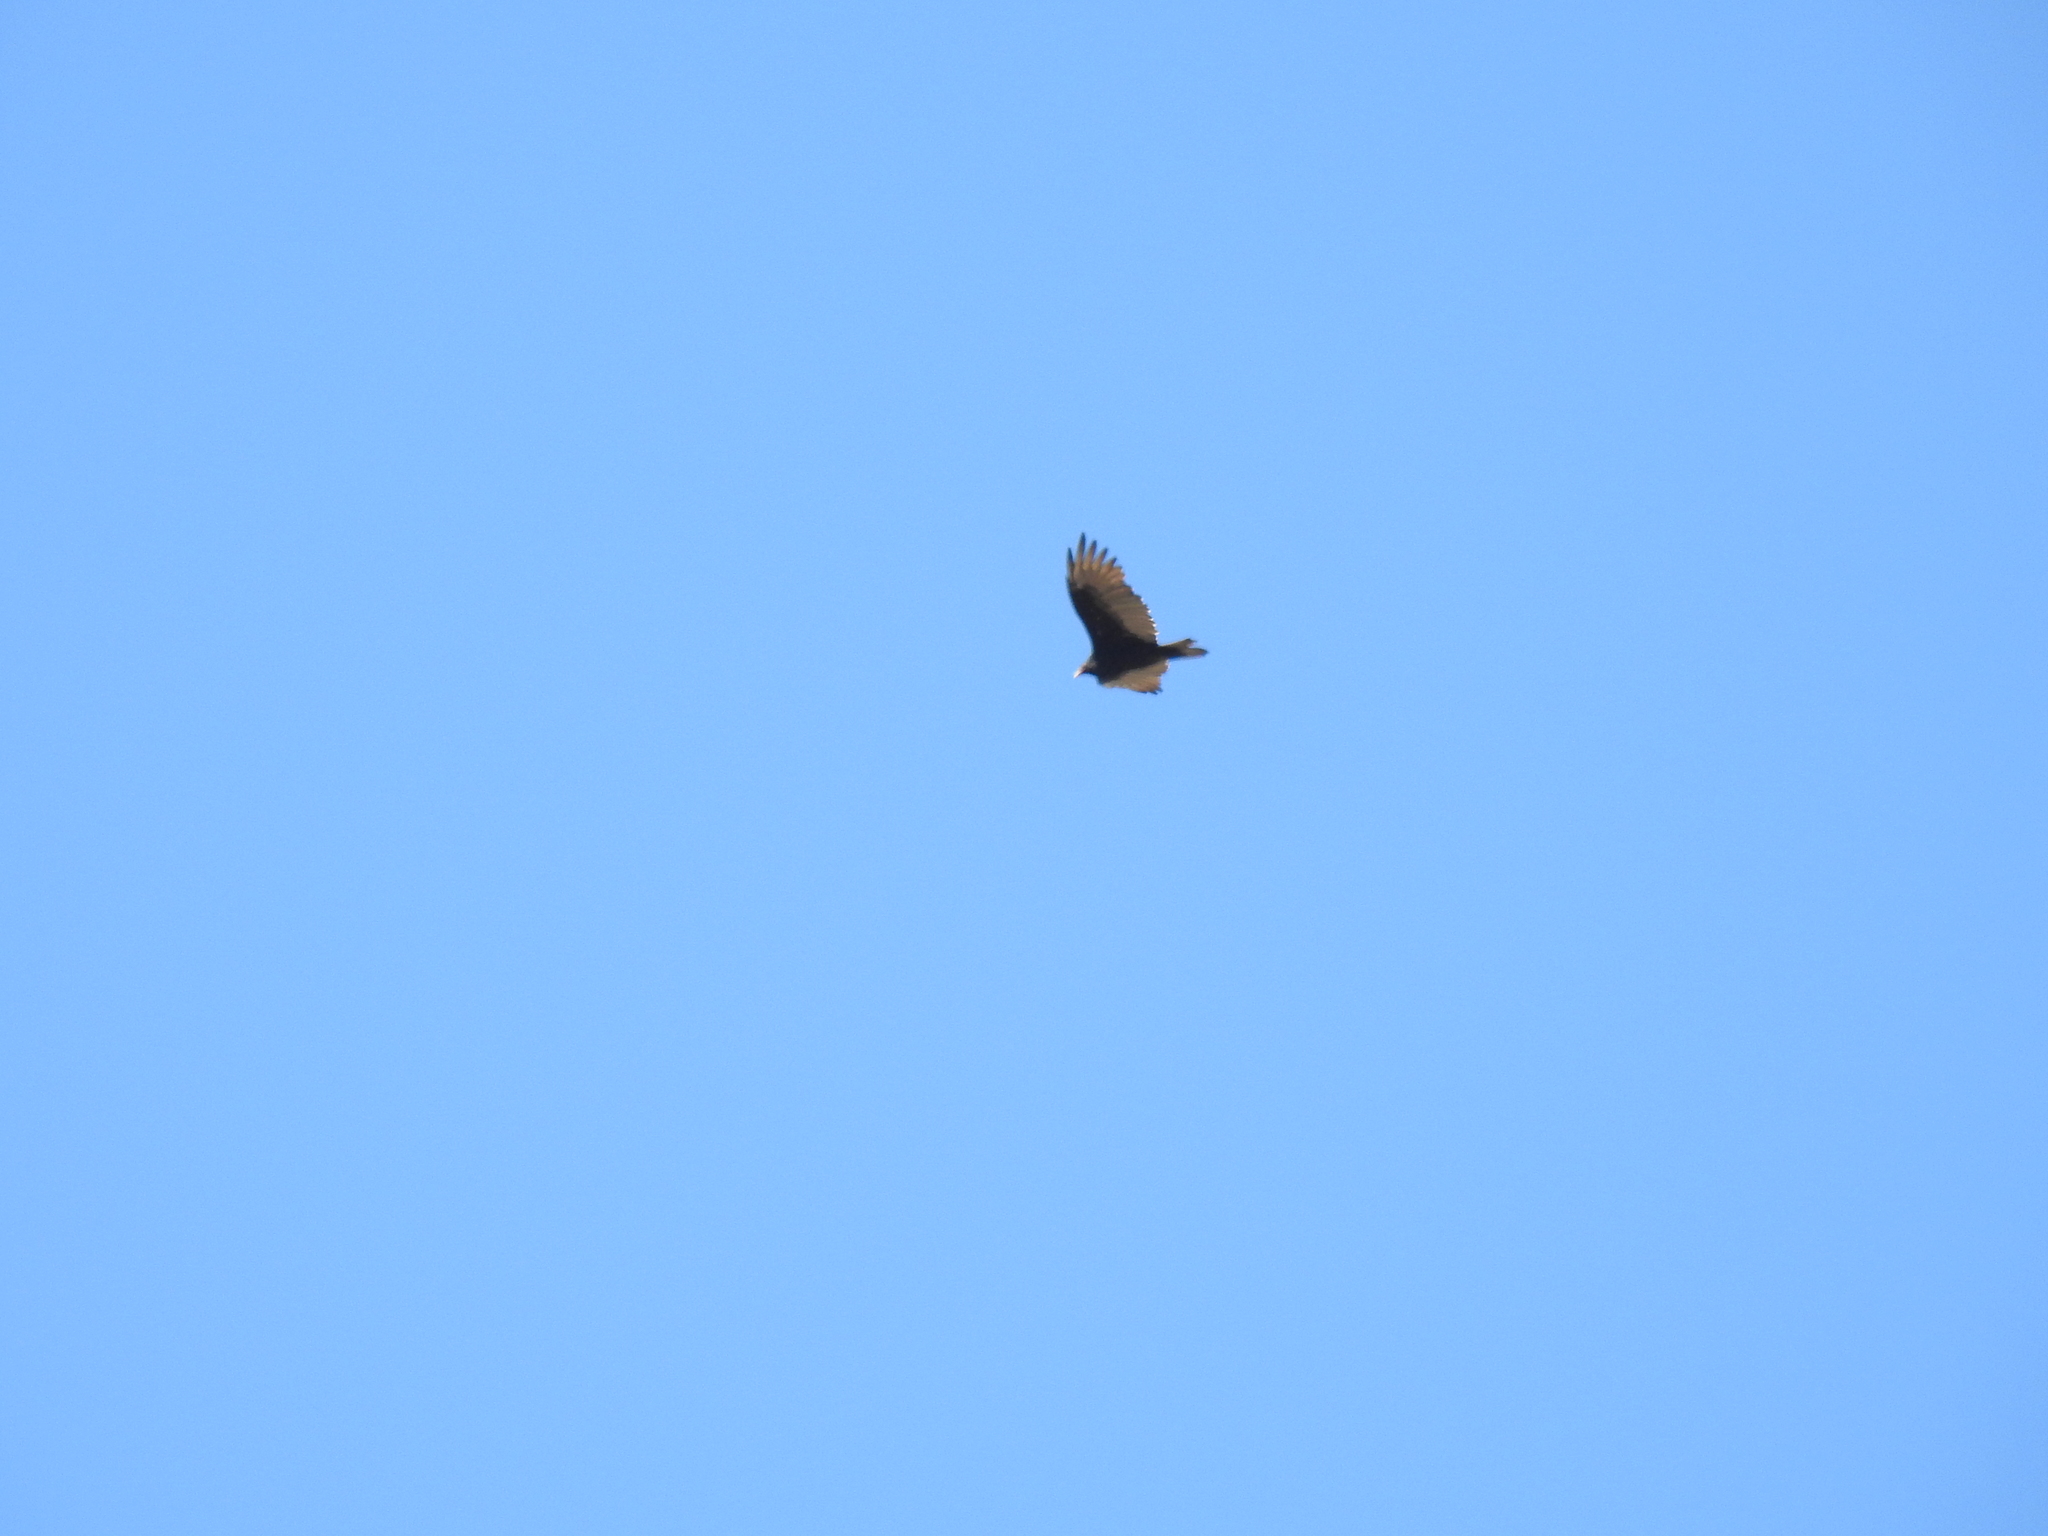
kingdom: Animalia
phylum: Chordata
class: Aves
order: Accipitriformes
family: Cathartidae
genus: Cathartes
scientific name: Cathartes aura
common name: Turkey vulture
